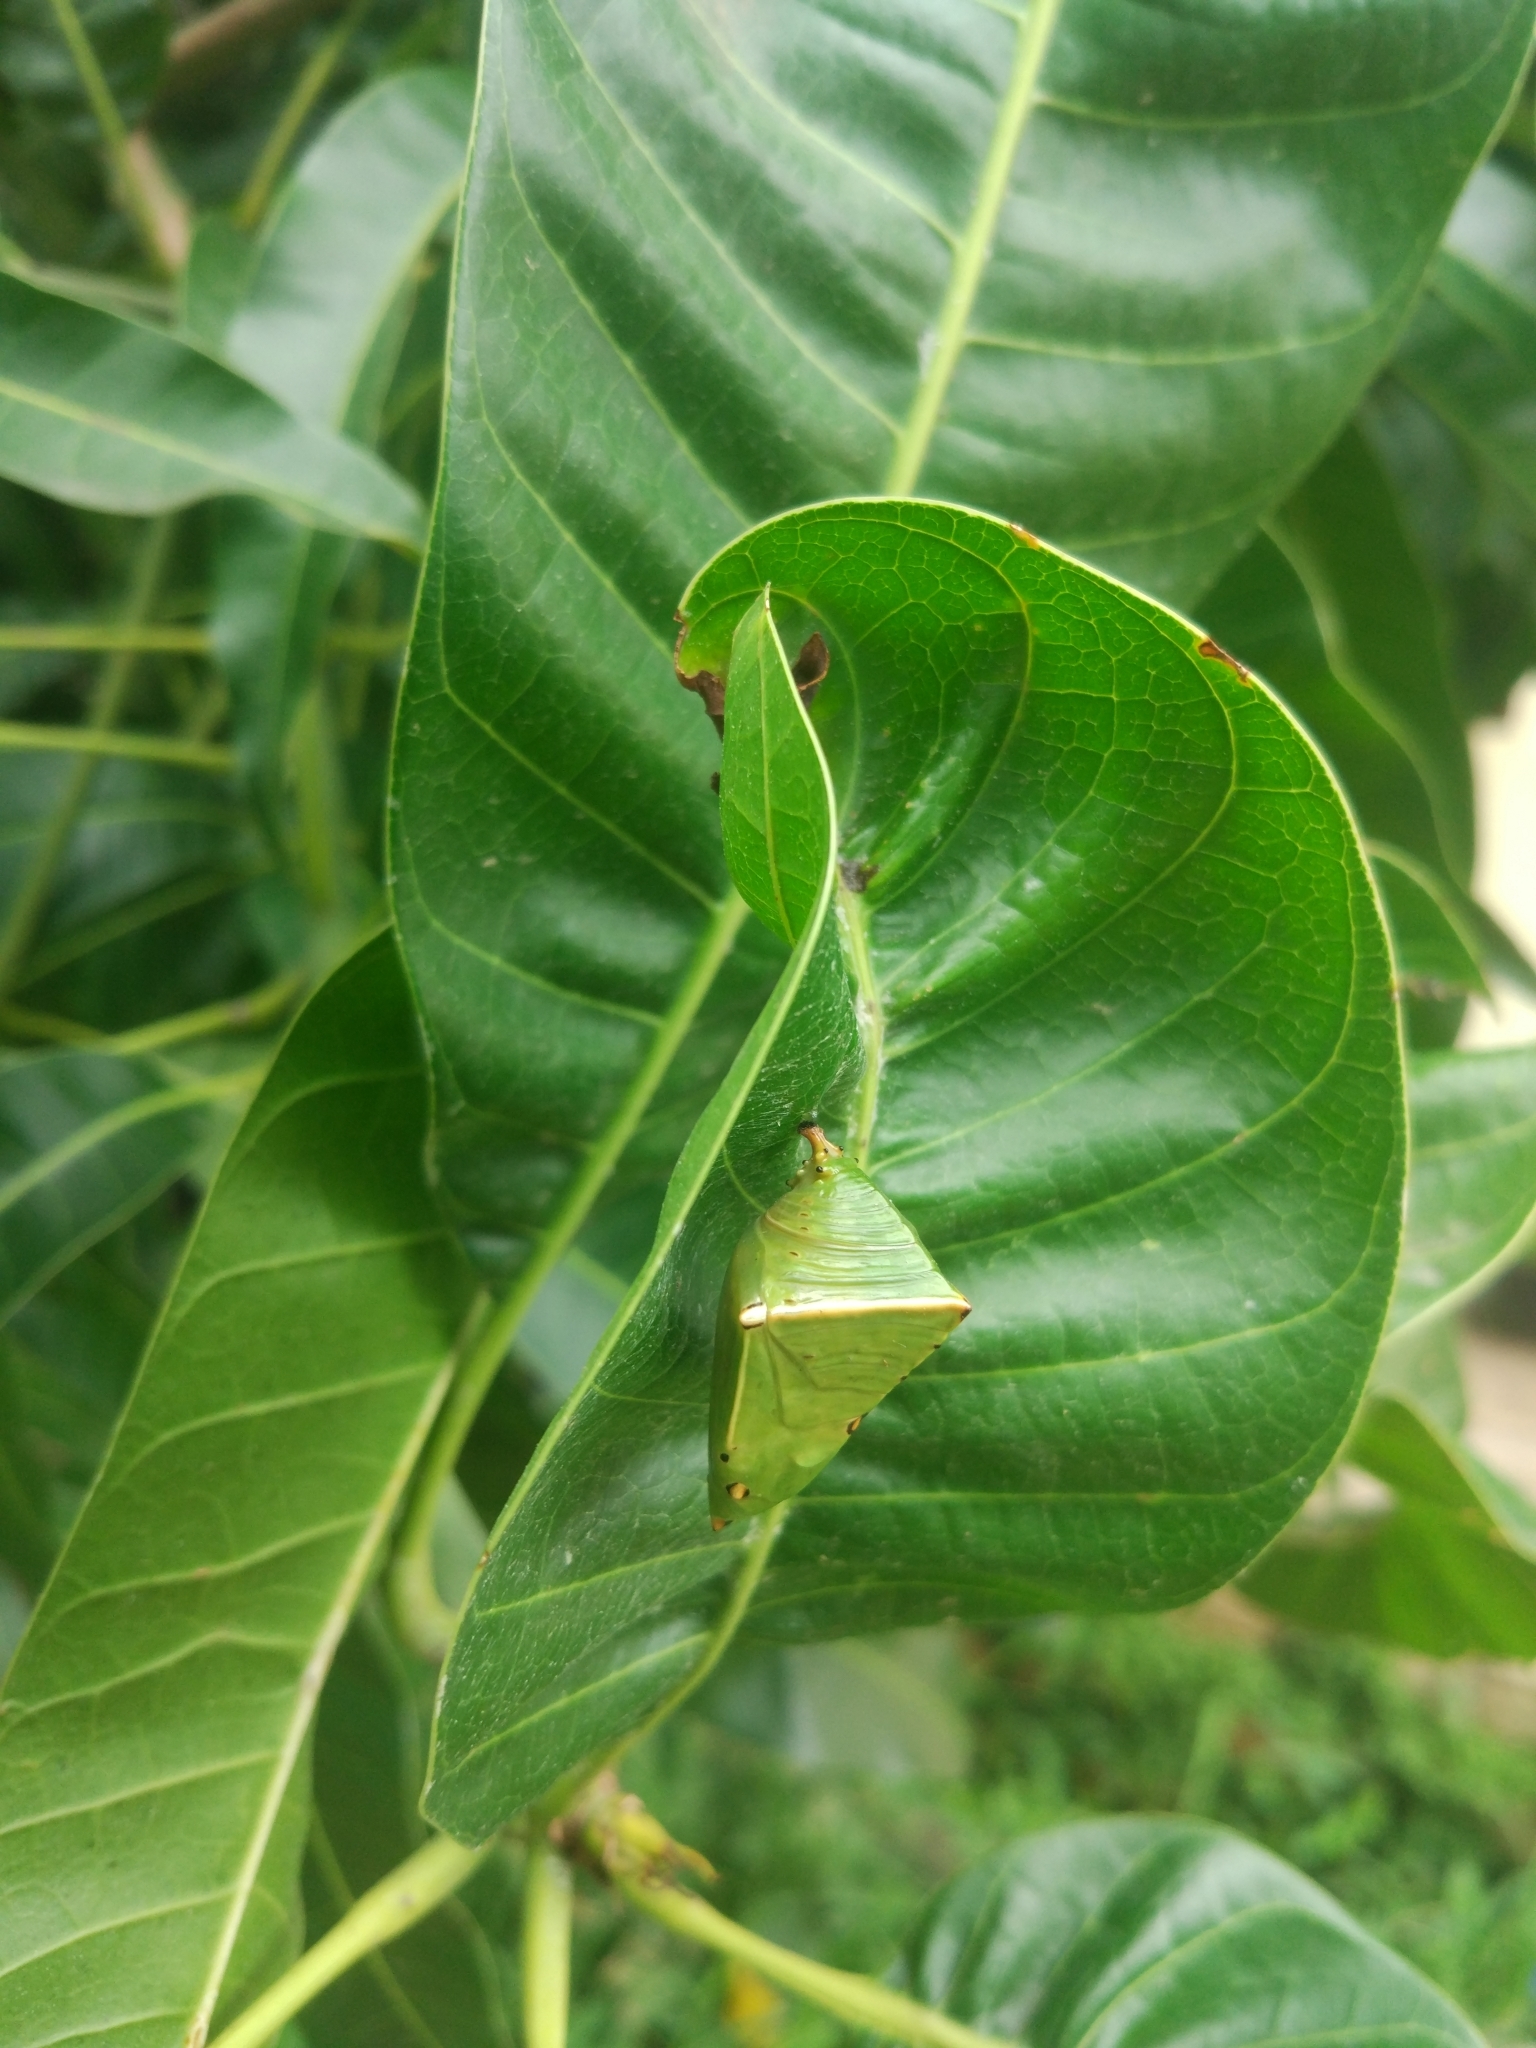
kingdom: Animalia
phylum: Arthropoda
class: Insecta
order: Lepidoptera
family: Nymphalidae
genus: Euthalia
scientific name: Euthalia aconthea
